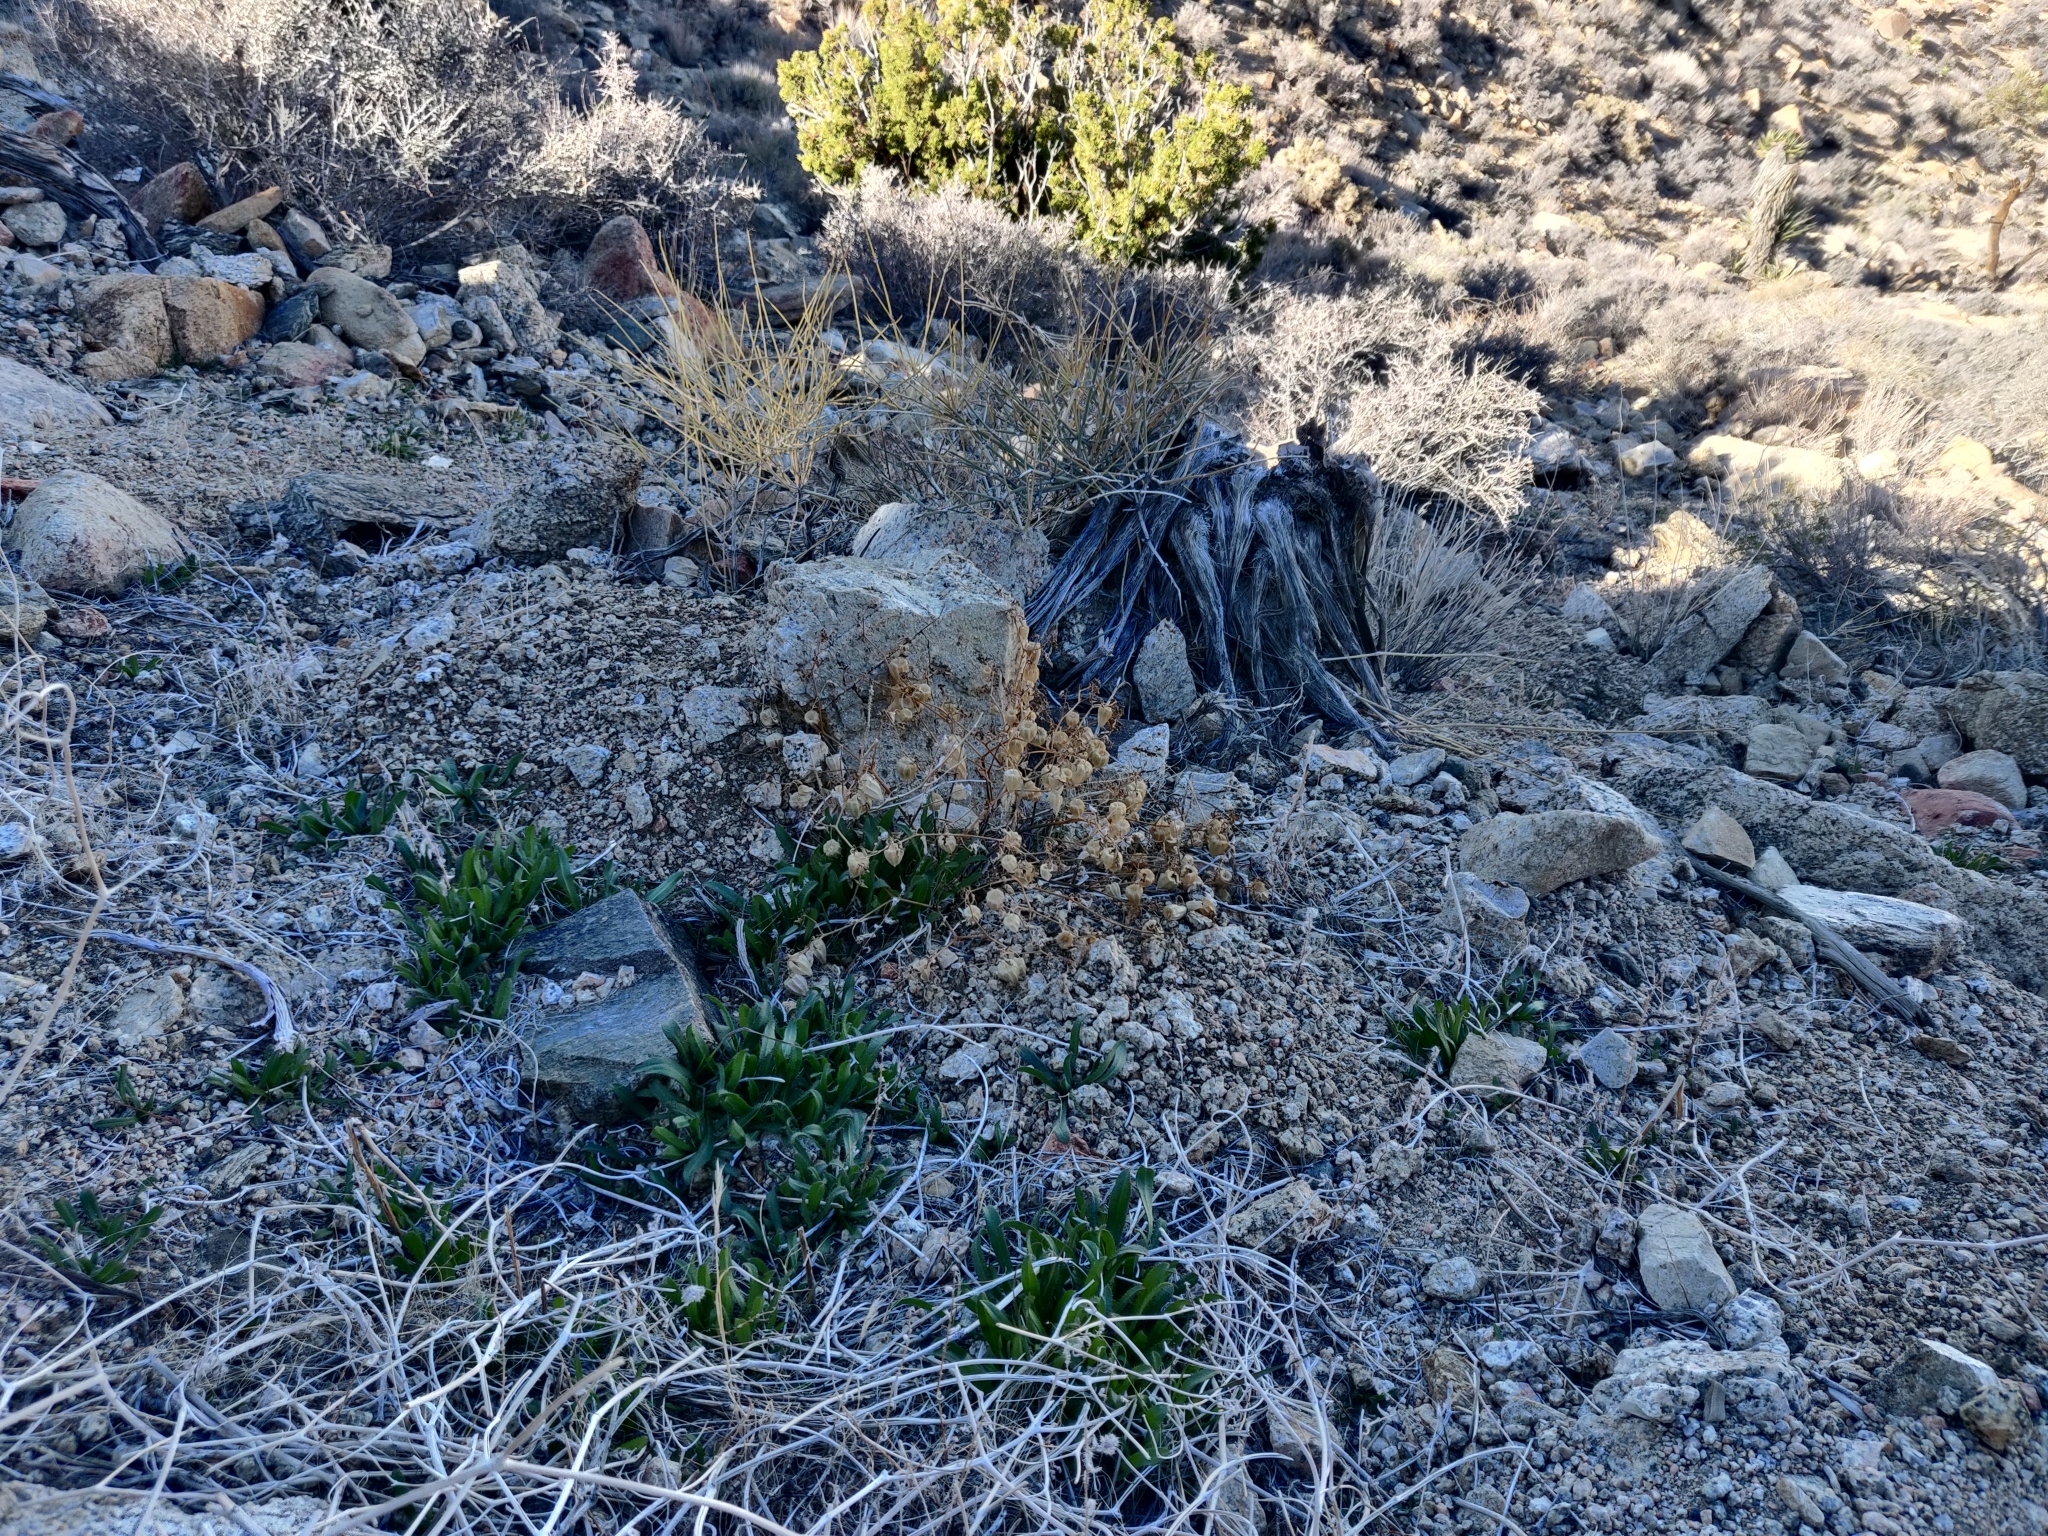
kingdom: Plantae
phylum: Tracheophyta
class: Magnoliopsida
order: Solanales
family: Solanaceae
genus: Physalis
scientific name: Physalis crassifolia
